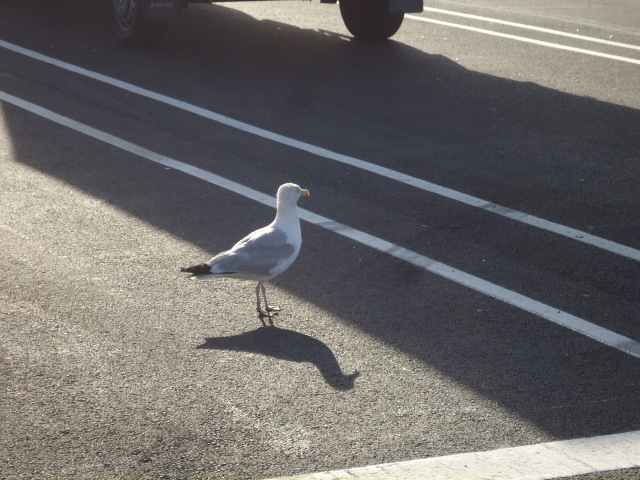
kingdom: Animalia
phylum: Chordata
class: Aves
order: Charadriiformes
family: Laridae
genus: Larus
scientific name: Larus argentatus
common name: Herring gull
